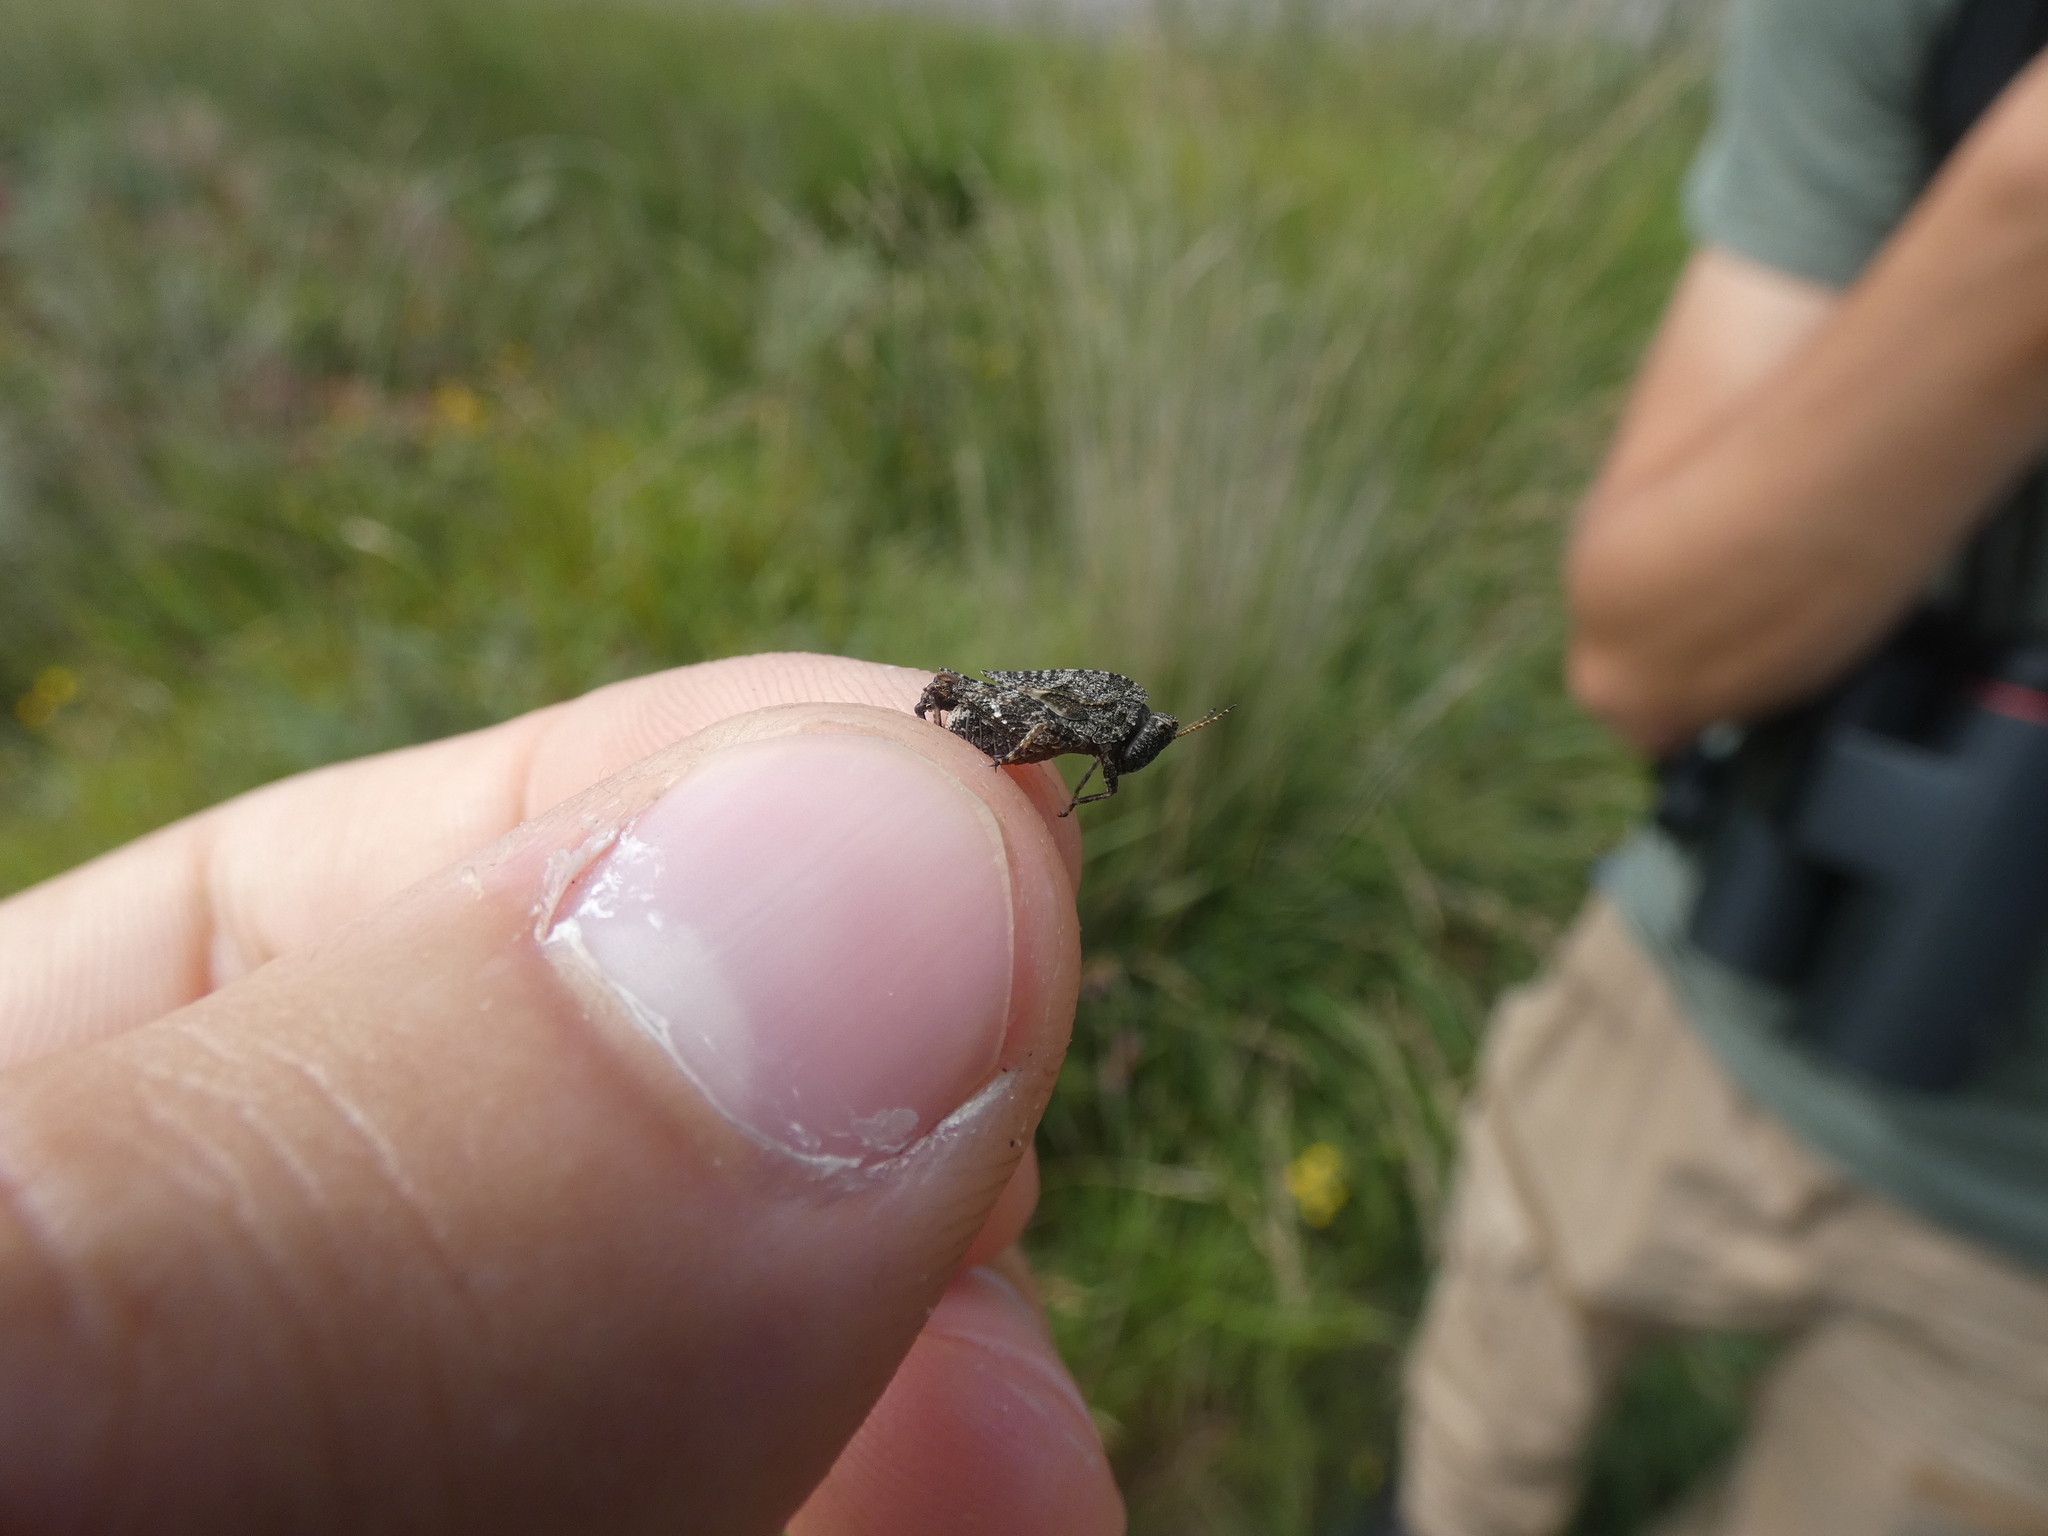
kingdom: Animalia
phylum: Arthropoda
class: Insecta
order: Orthoptera
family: Tetrigidae
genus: Tetrix
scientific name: Tetrix undulata
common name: Common groundhopper
